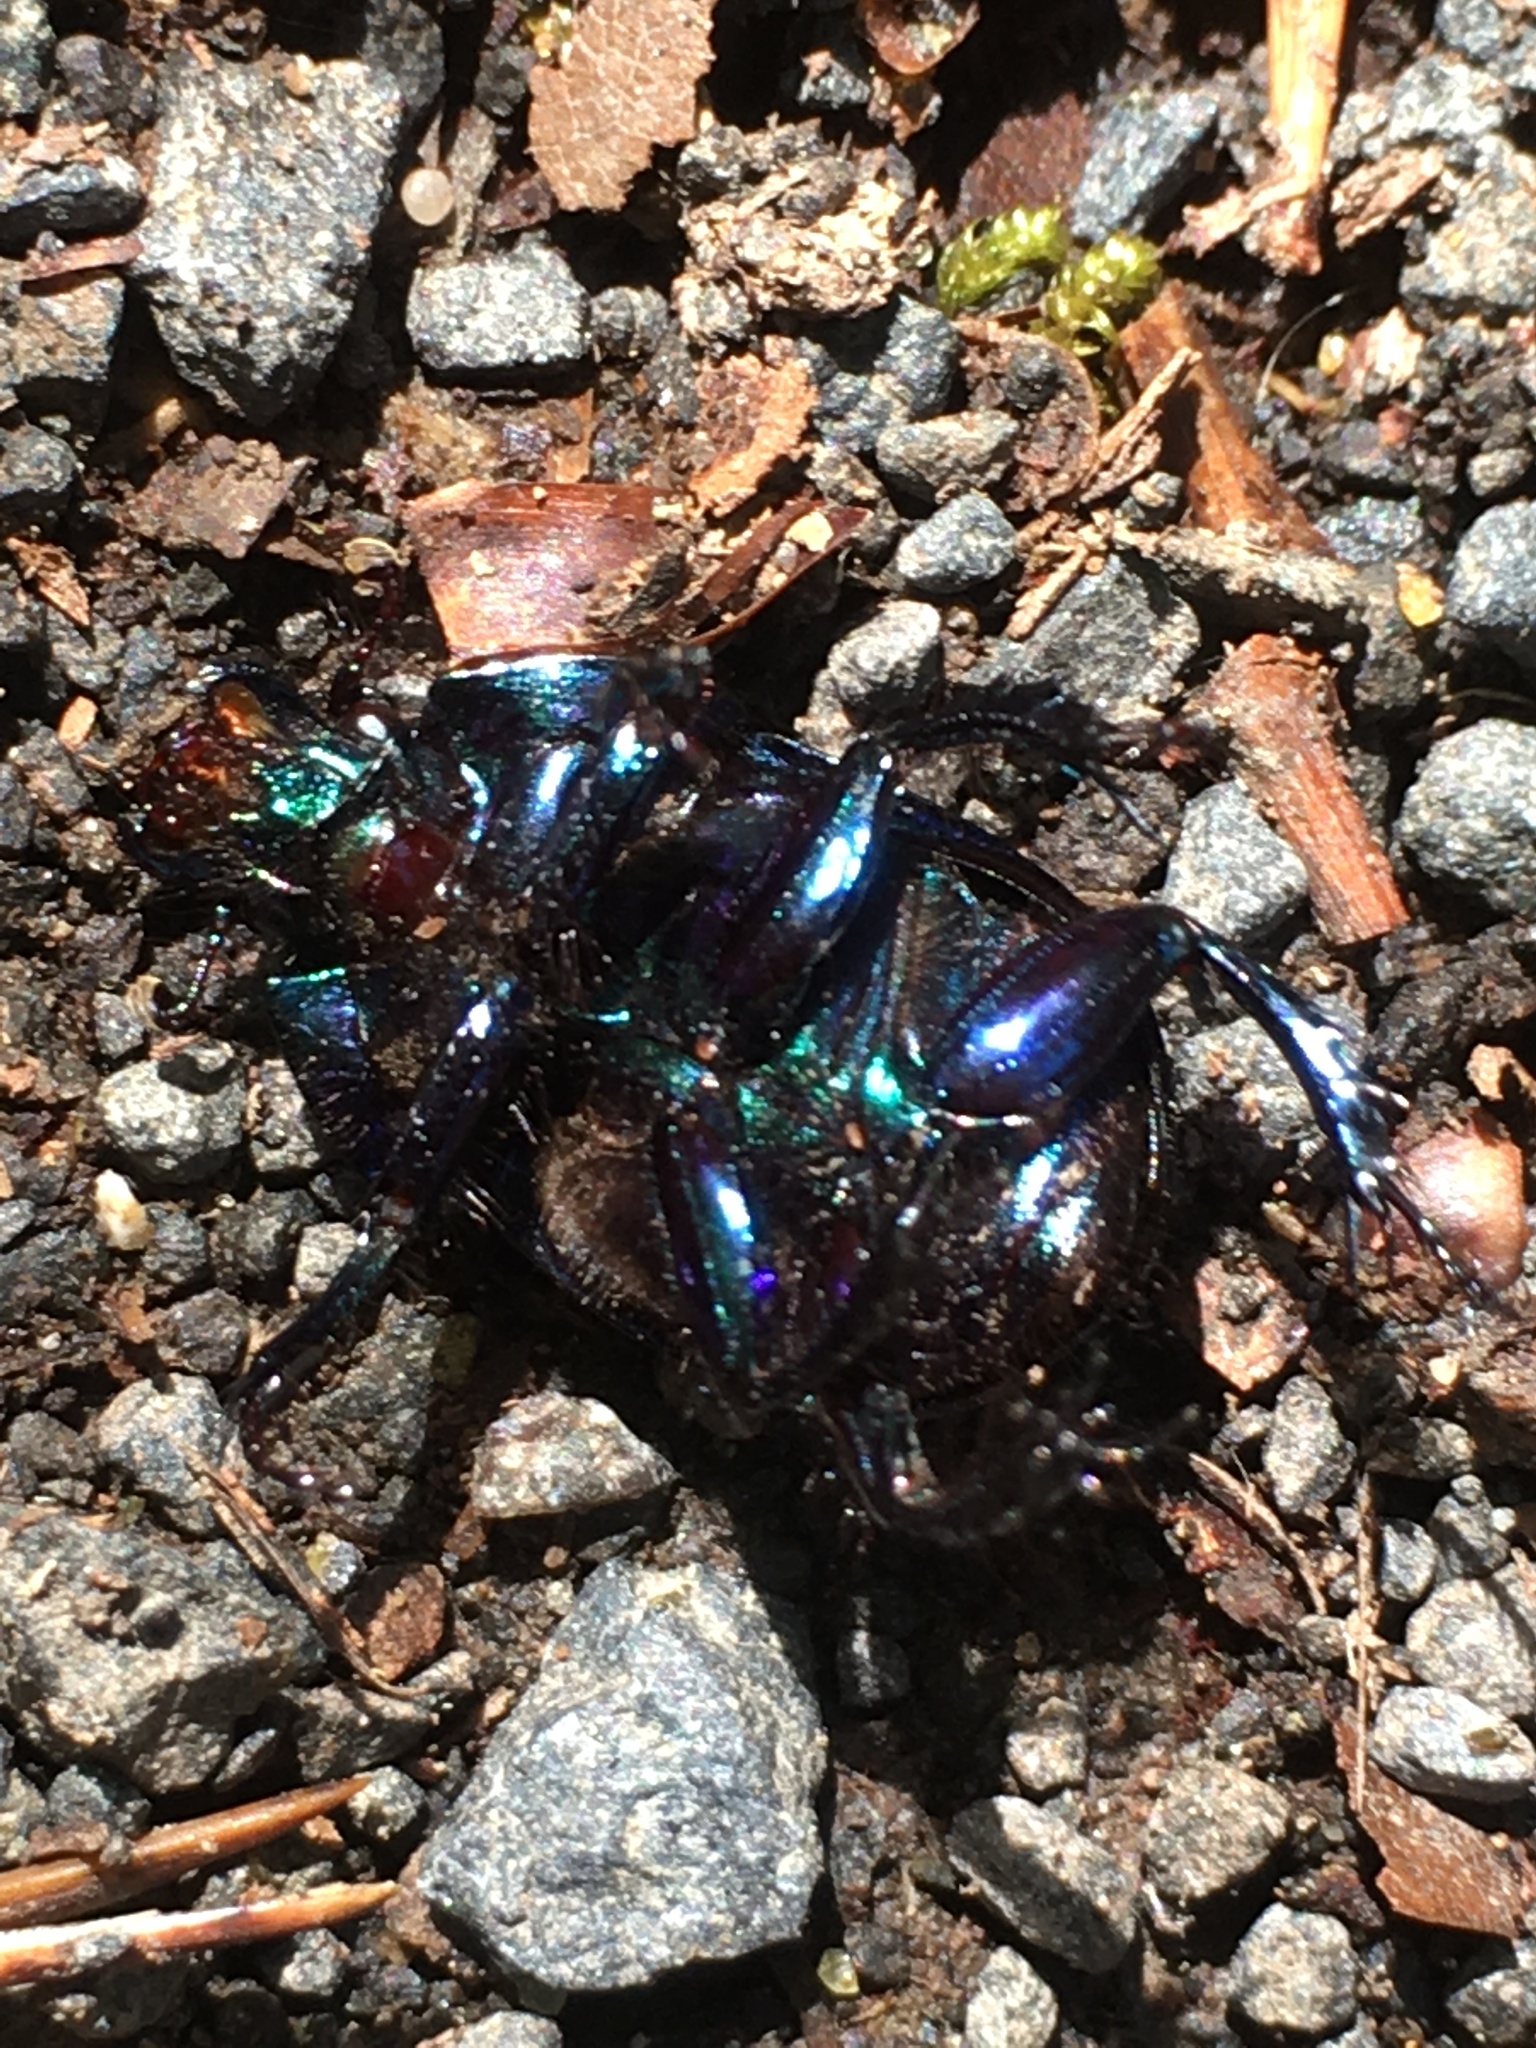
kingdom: Animalia
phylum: Arthropoda
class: Insecta
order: Coleoptera
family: Geotrupidae
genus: Anoplotrupes
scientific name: Anoplotrupes stercorosus
